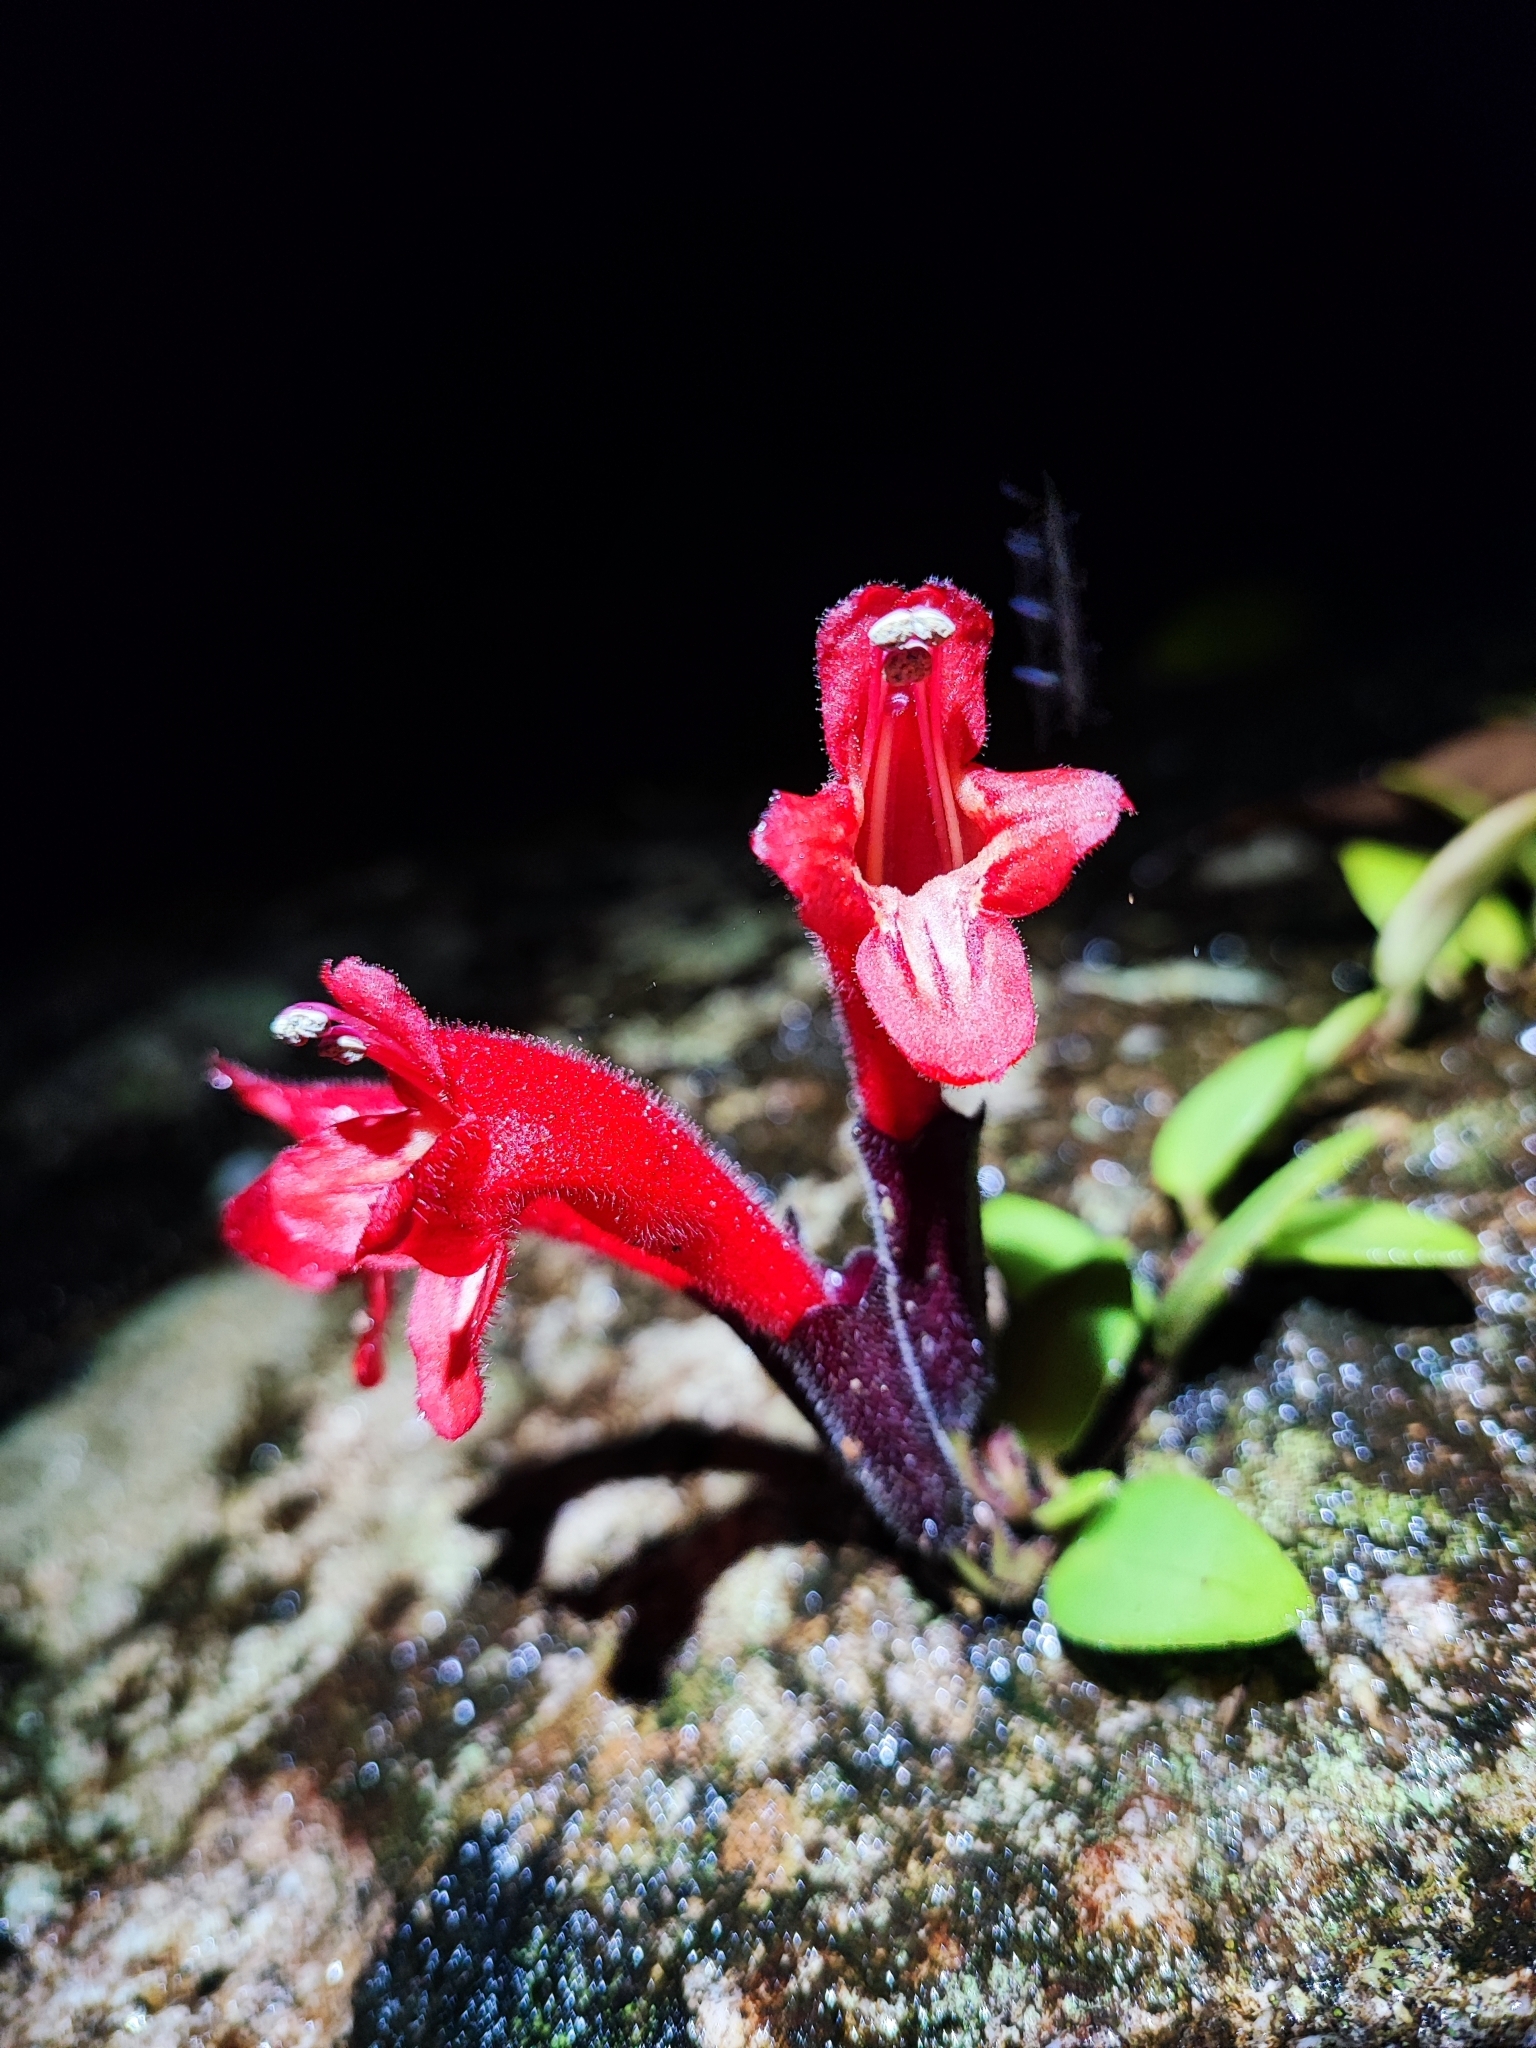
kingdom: Plantae
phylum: Tracheophyta
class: Magnoliopsida
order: Lamiales
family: Gesneriaceae
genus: Aeschynanthus
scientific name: Aeschynanthus pulcher
